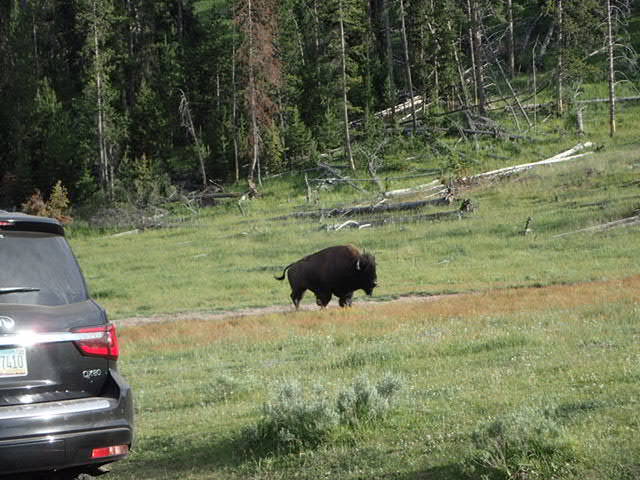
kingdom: Animalia
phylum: Chordata
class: Mammalia
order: Artiodactyla
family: Bovidae
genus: Bison
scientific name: Bison bison
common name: American bison
